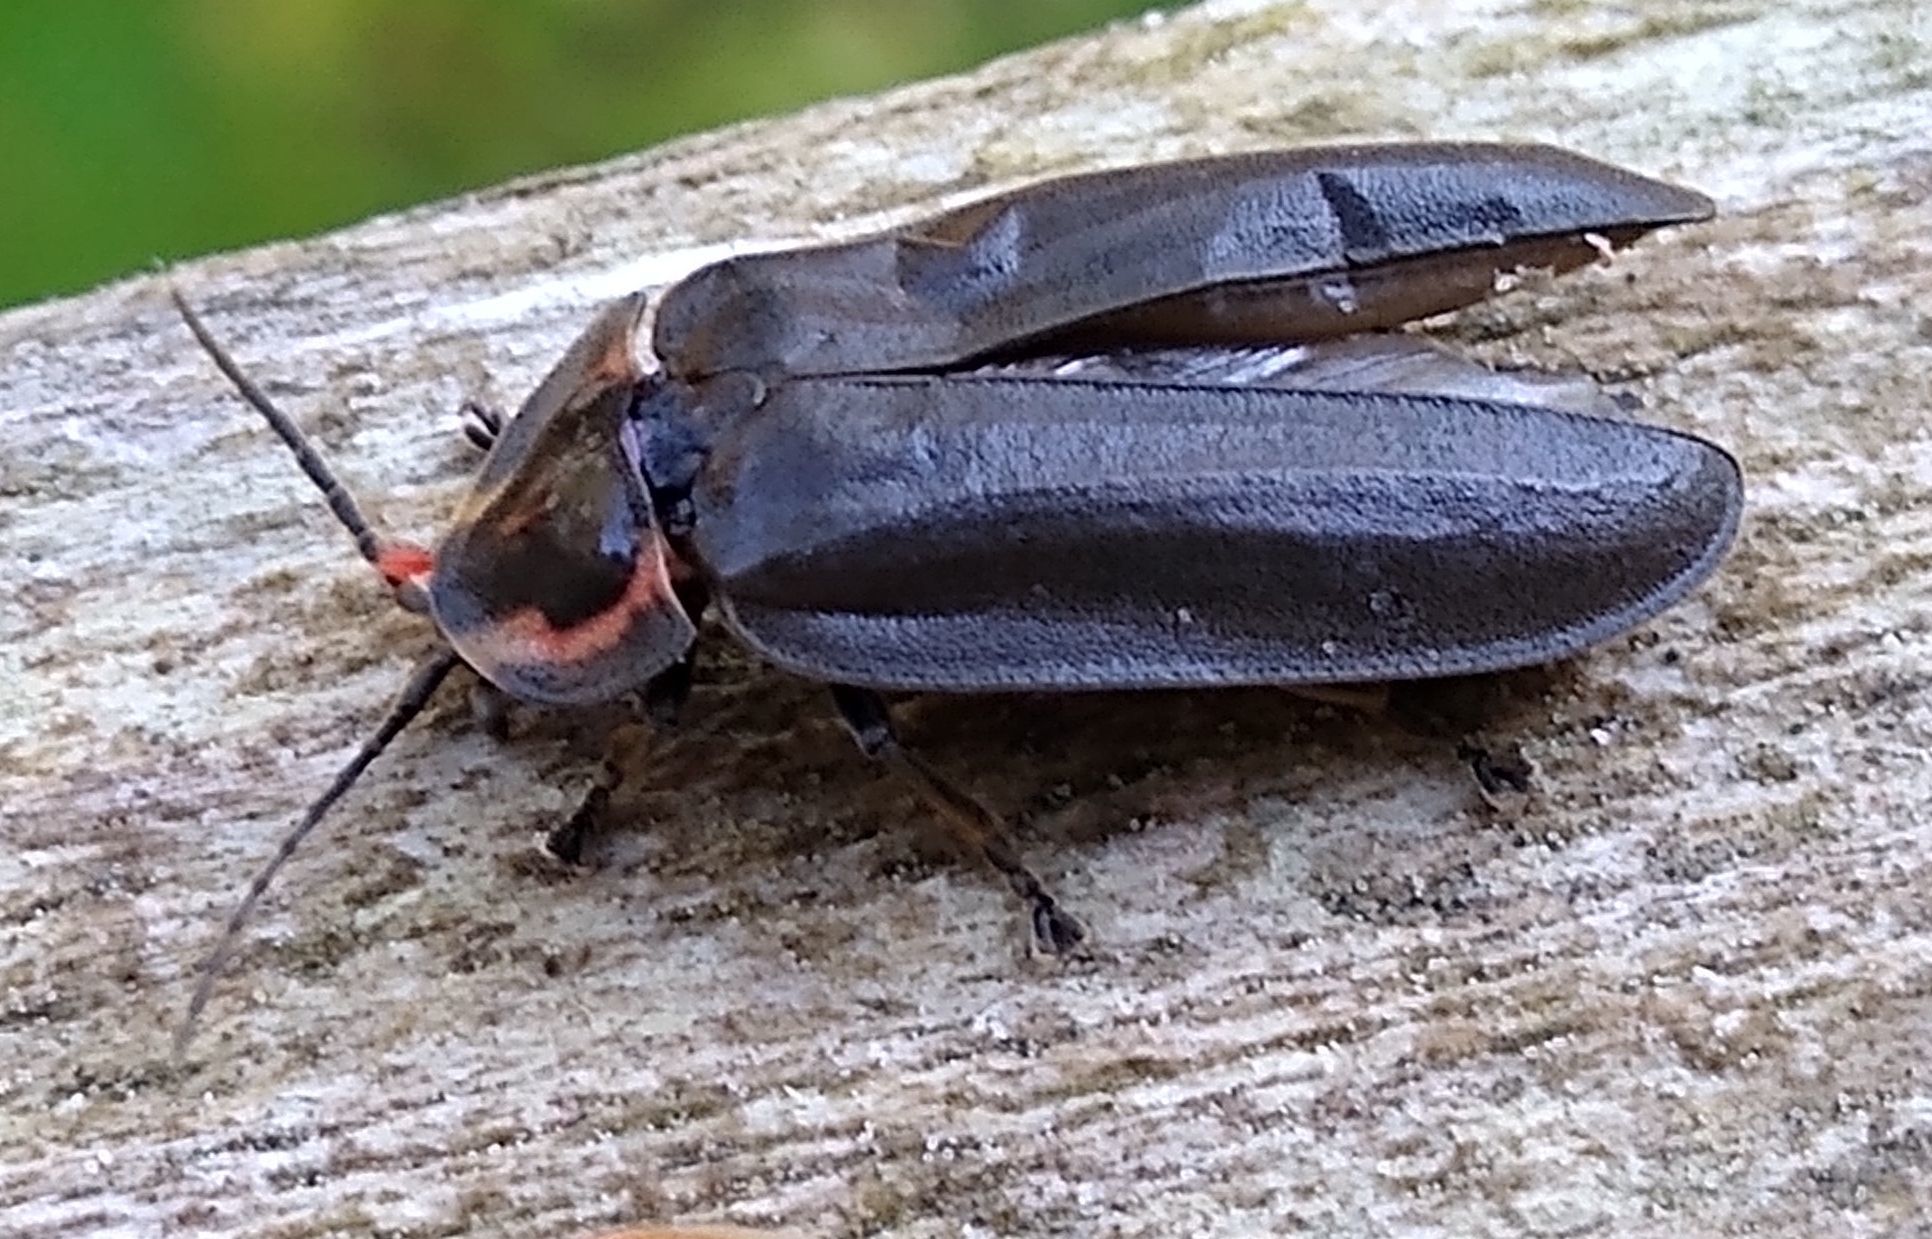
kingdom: Animalia
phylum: Arthropoda
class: Insecta
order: Coleoptera
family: Lampyridae
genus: Photinus
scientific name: Photinus corrusca
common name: Winter firefly
